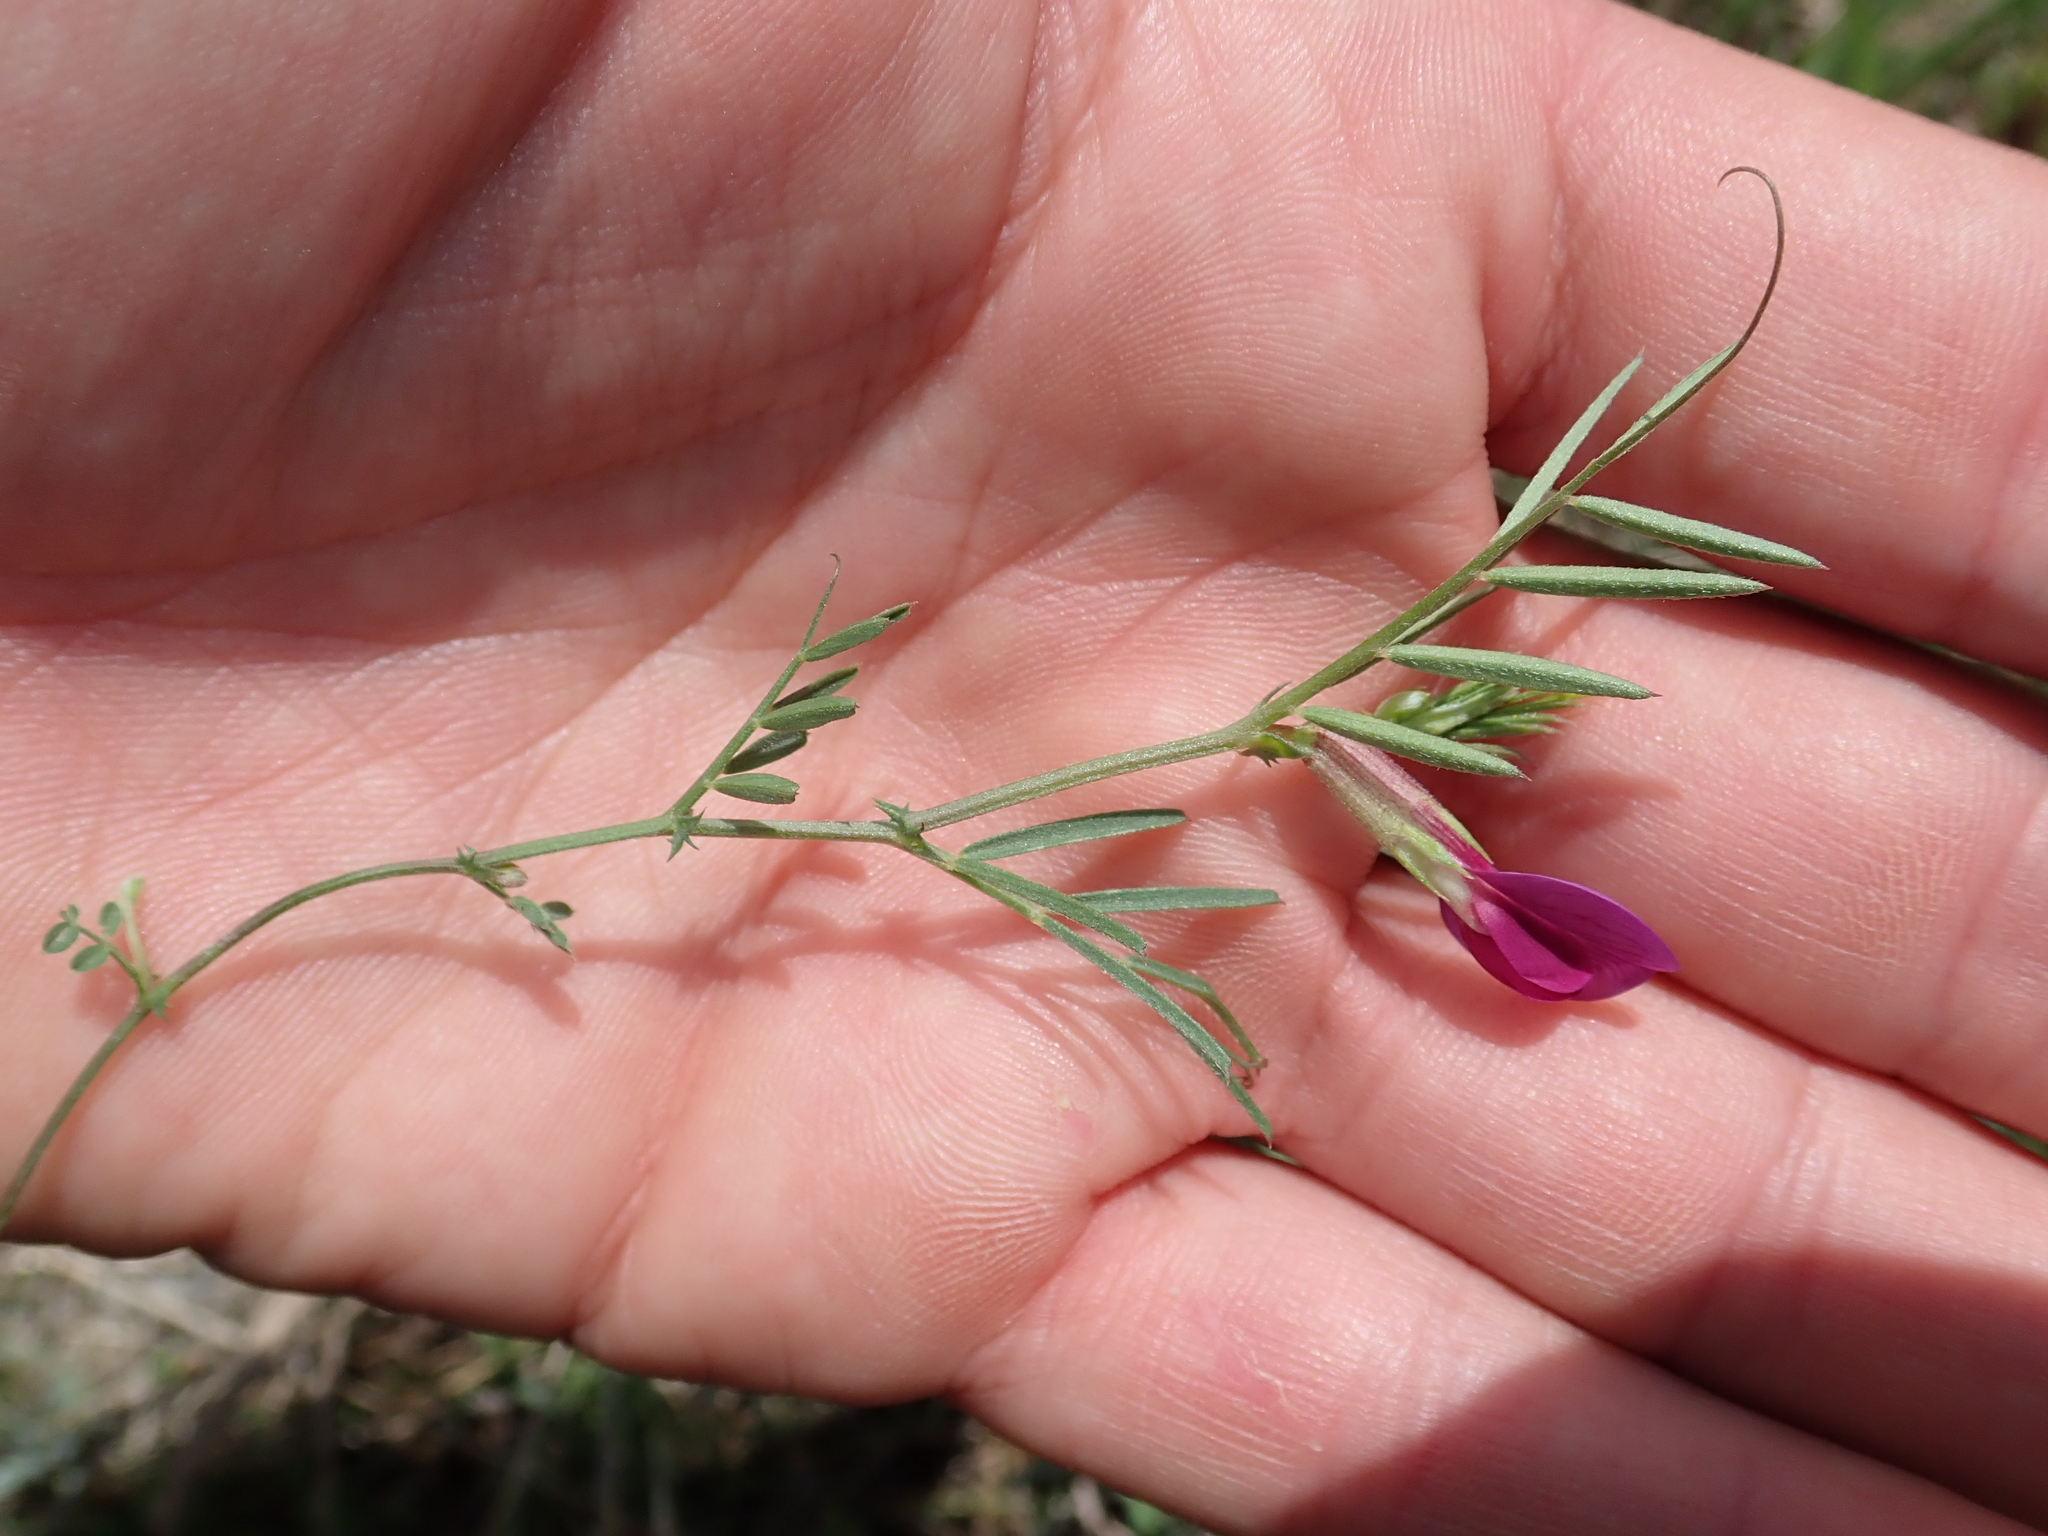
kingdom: Plantae
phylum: Tracheophyta
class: Magnoliopsida
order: Fabales
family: Fabaceae
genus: Vicia
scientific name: Vicia sativa
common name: Garden vetch
